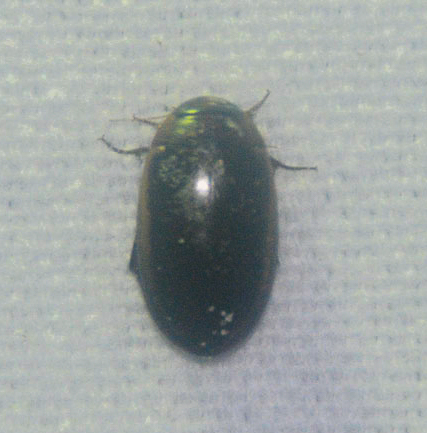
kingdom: Animalia
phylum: Arthropoda
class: Insecta
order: Coleoptera
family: Dytiscidae
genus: Hydaticus
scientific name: Hydaticus bimarginatus
